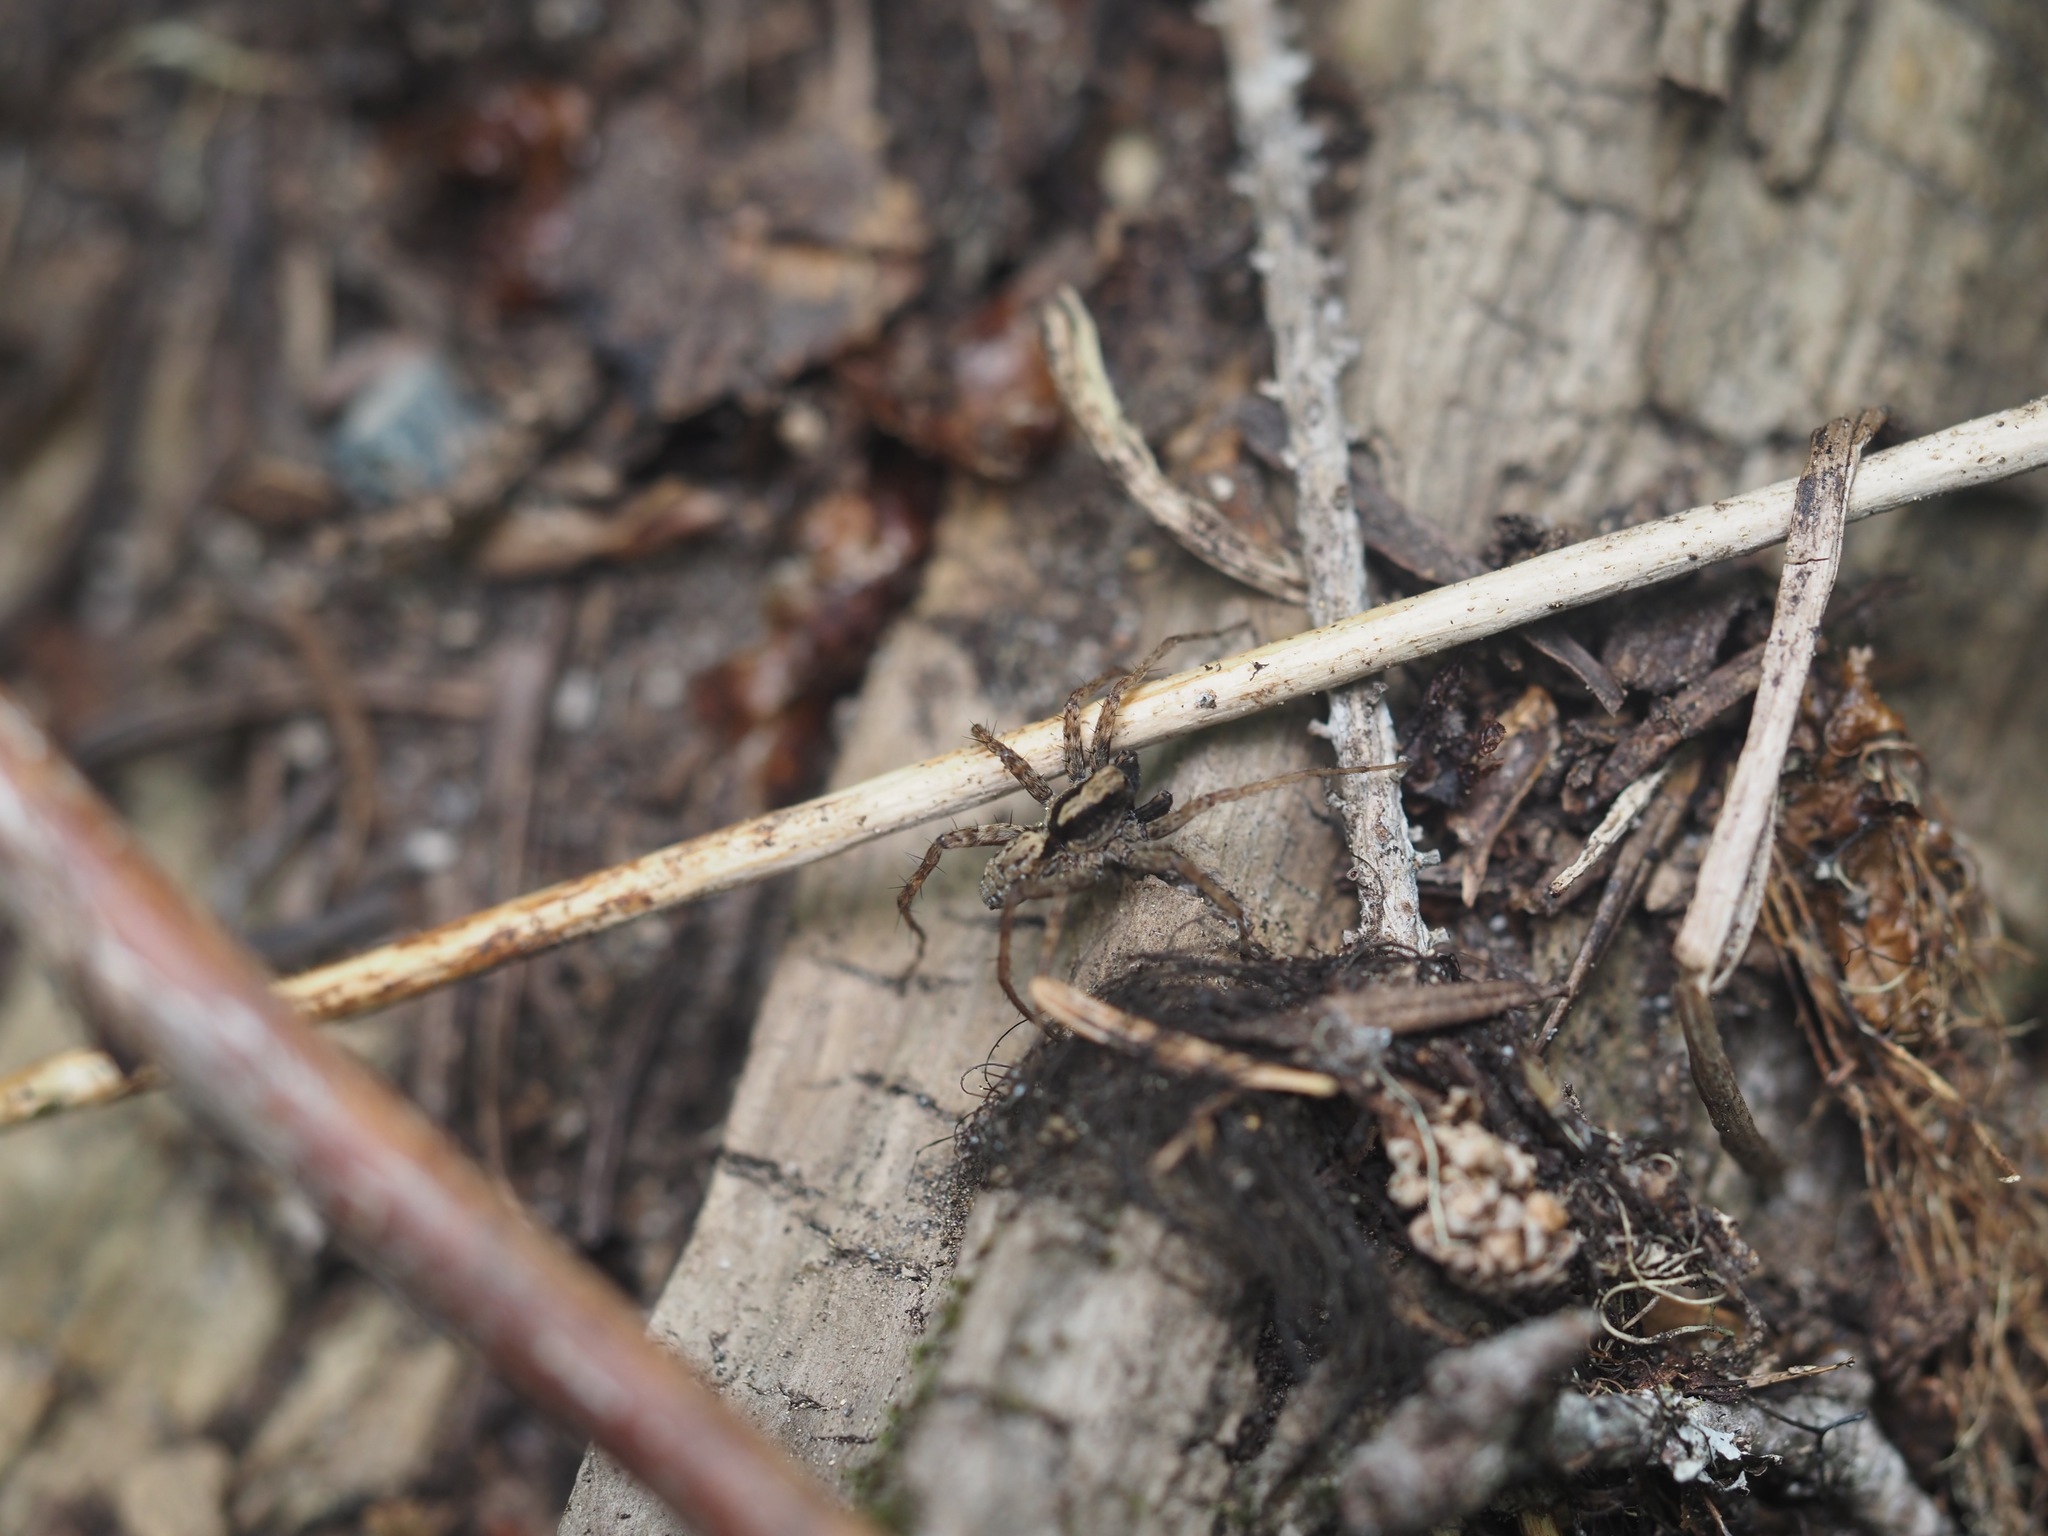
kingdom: Animalia
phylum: Arthropoda
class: Arachnida
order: Araneae
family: Lycosidae
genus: Alopecosa
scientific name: Alopecosa kochi
